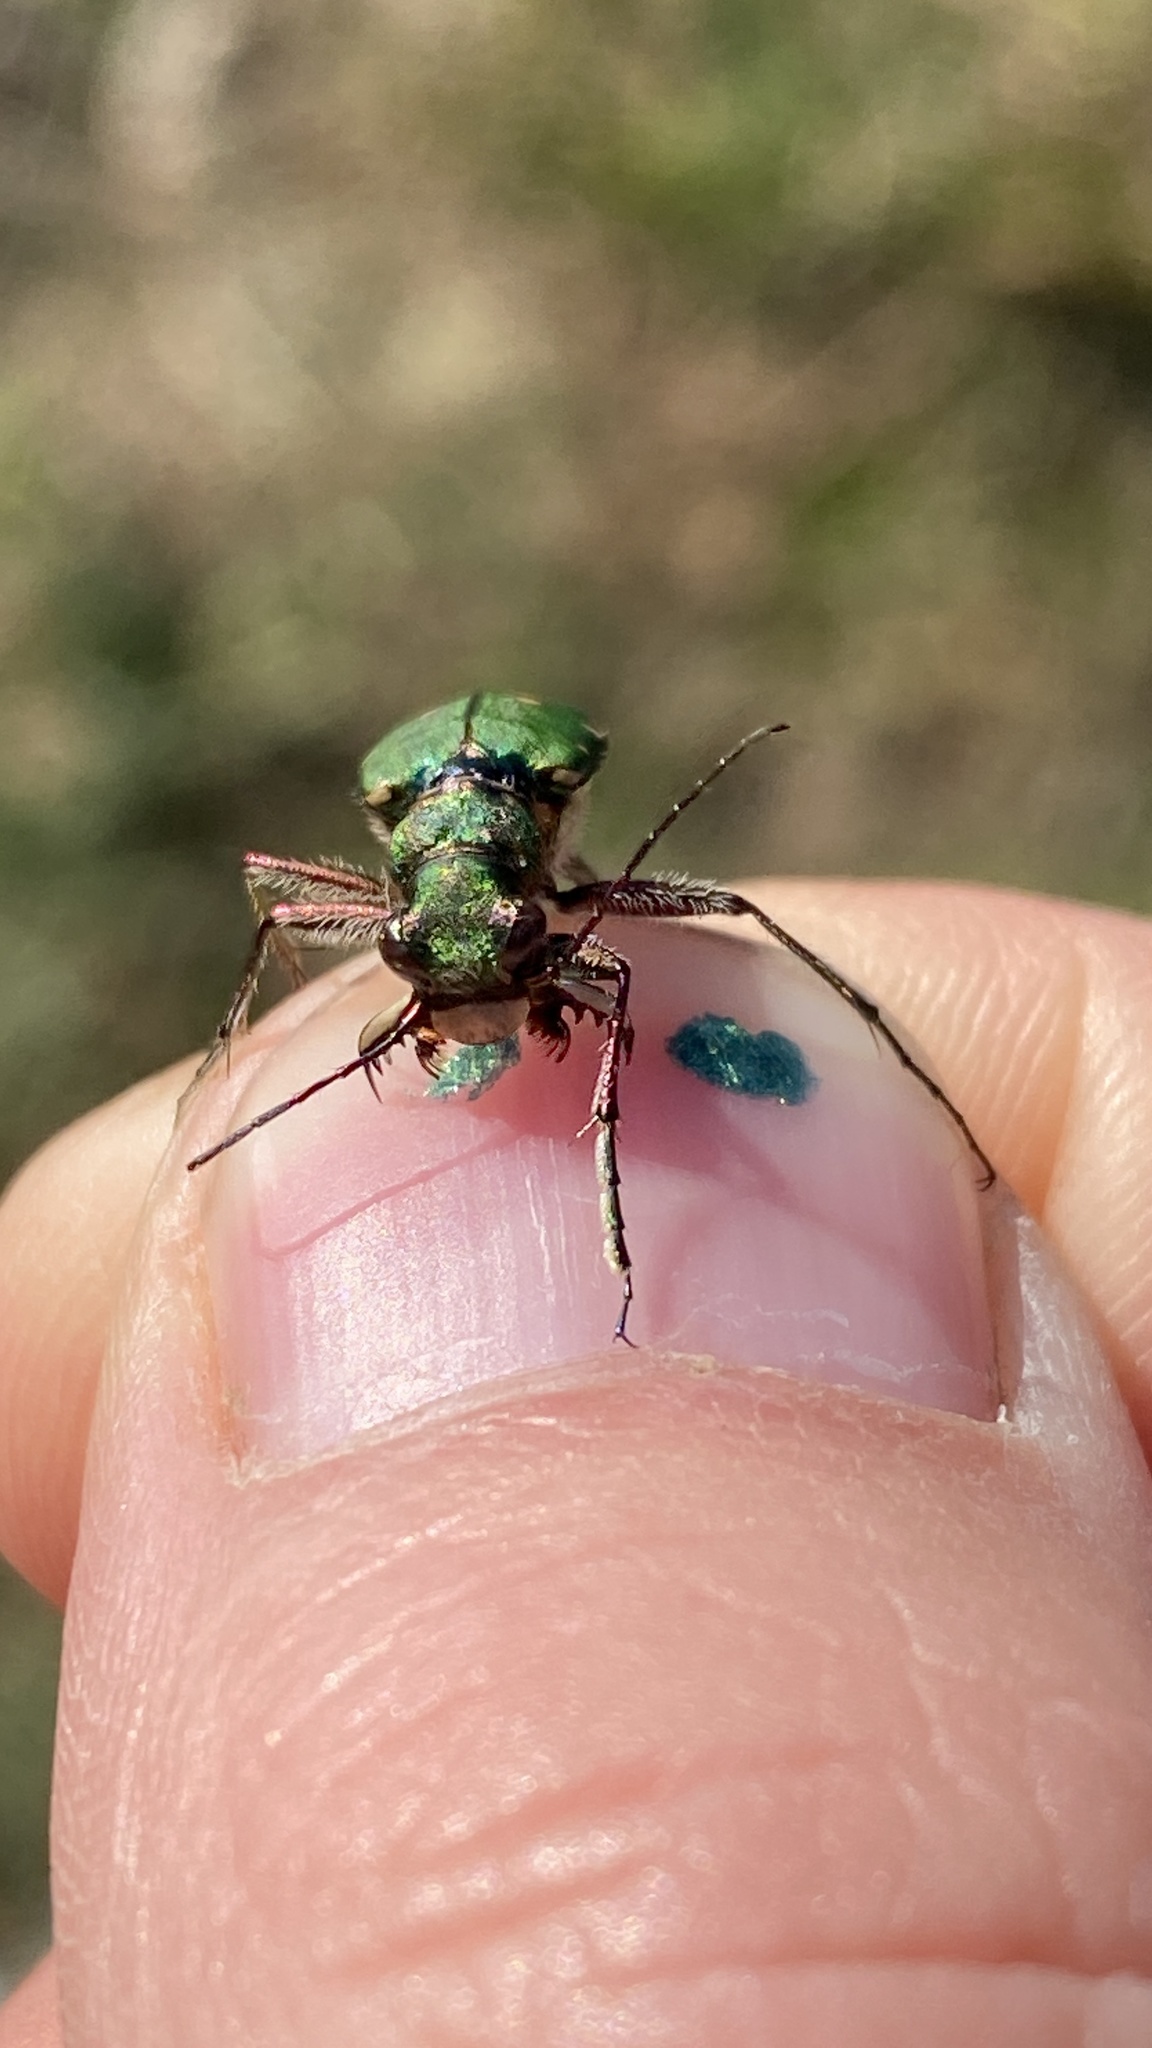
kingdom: Animalia
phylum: Arthropoda
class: Insecta
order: Coleoptera
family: Carabidae
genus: Cicindela
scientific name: Cicindela campestris
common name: Common tiger beetle
